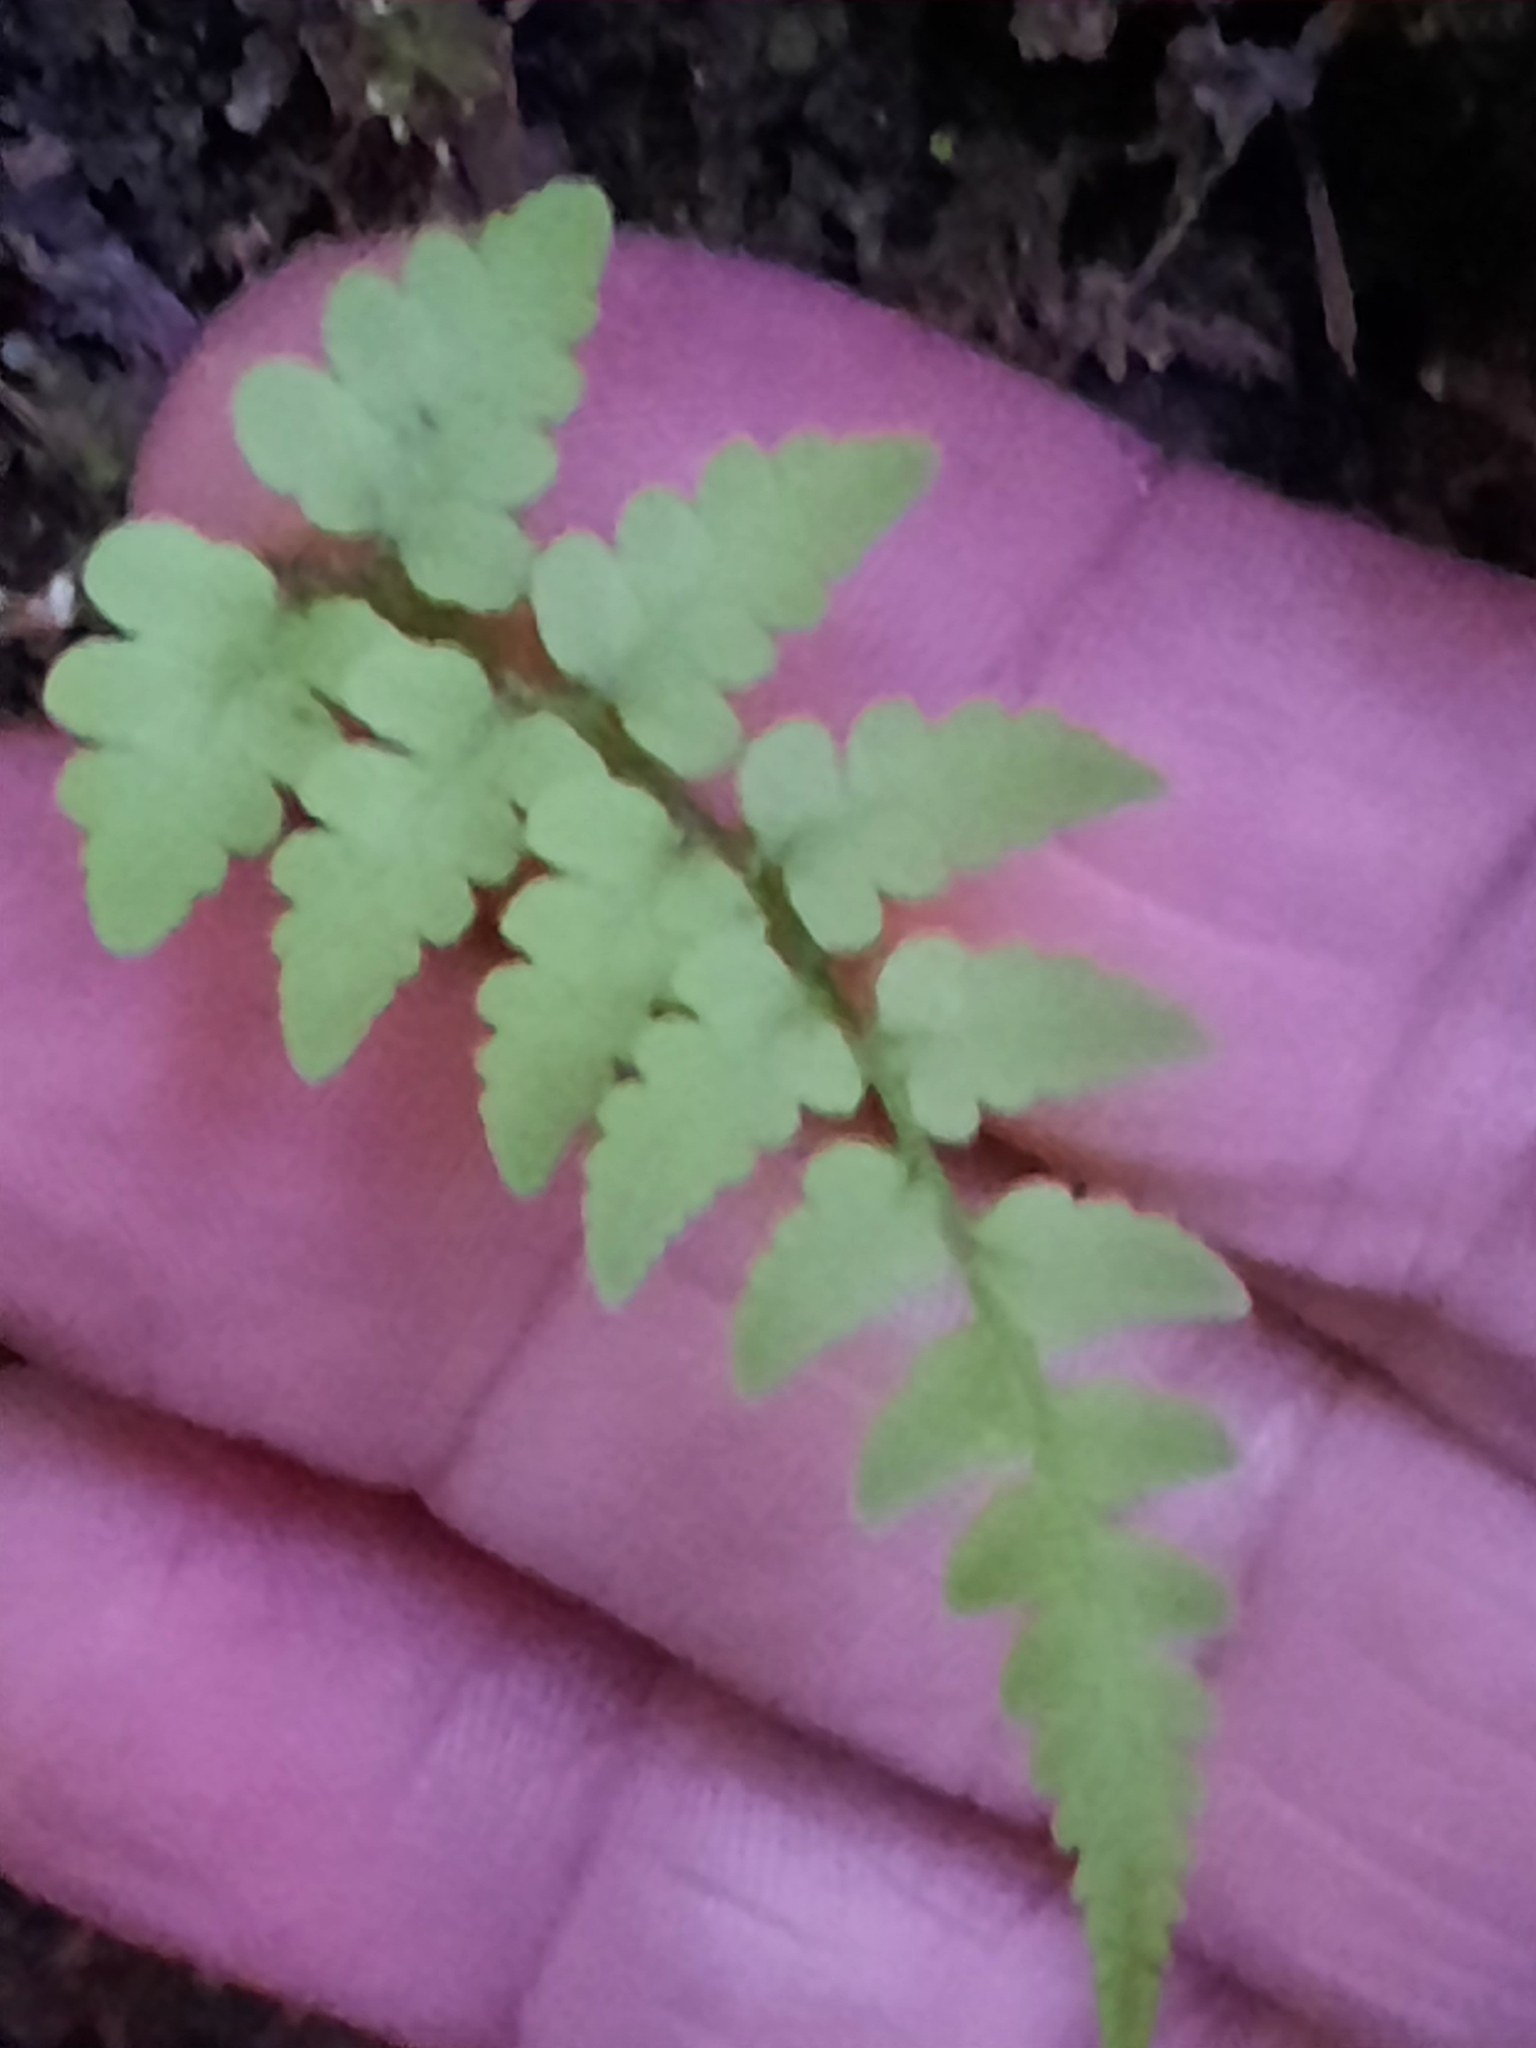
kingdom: Plantae
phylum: Tracheophyta
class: Polypodiopsida
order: Polypodiales
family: Dryopteridaceae
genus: Dryopteris
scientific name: Dryopteris marginalis
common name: Marginal wood fern
